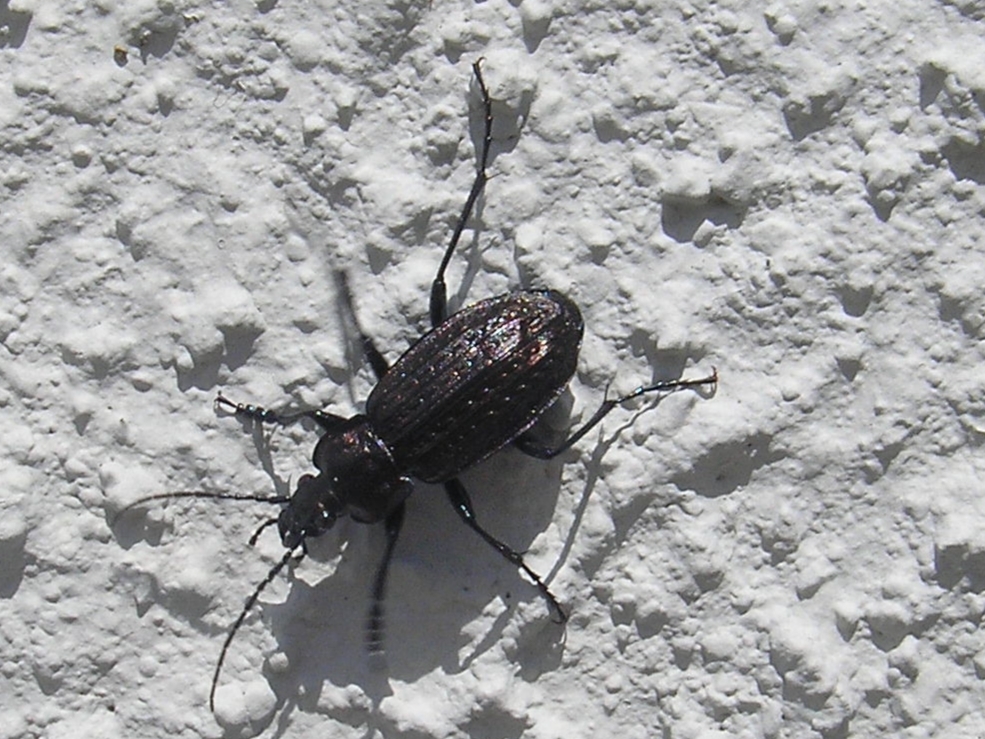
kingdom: Animalia
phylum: Arthropoda
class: Insecta
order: Coleoptera
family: Carabidae
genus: Carabus
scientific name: Carabus granulatus
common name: Granulate ground beetle
